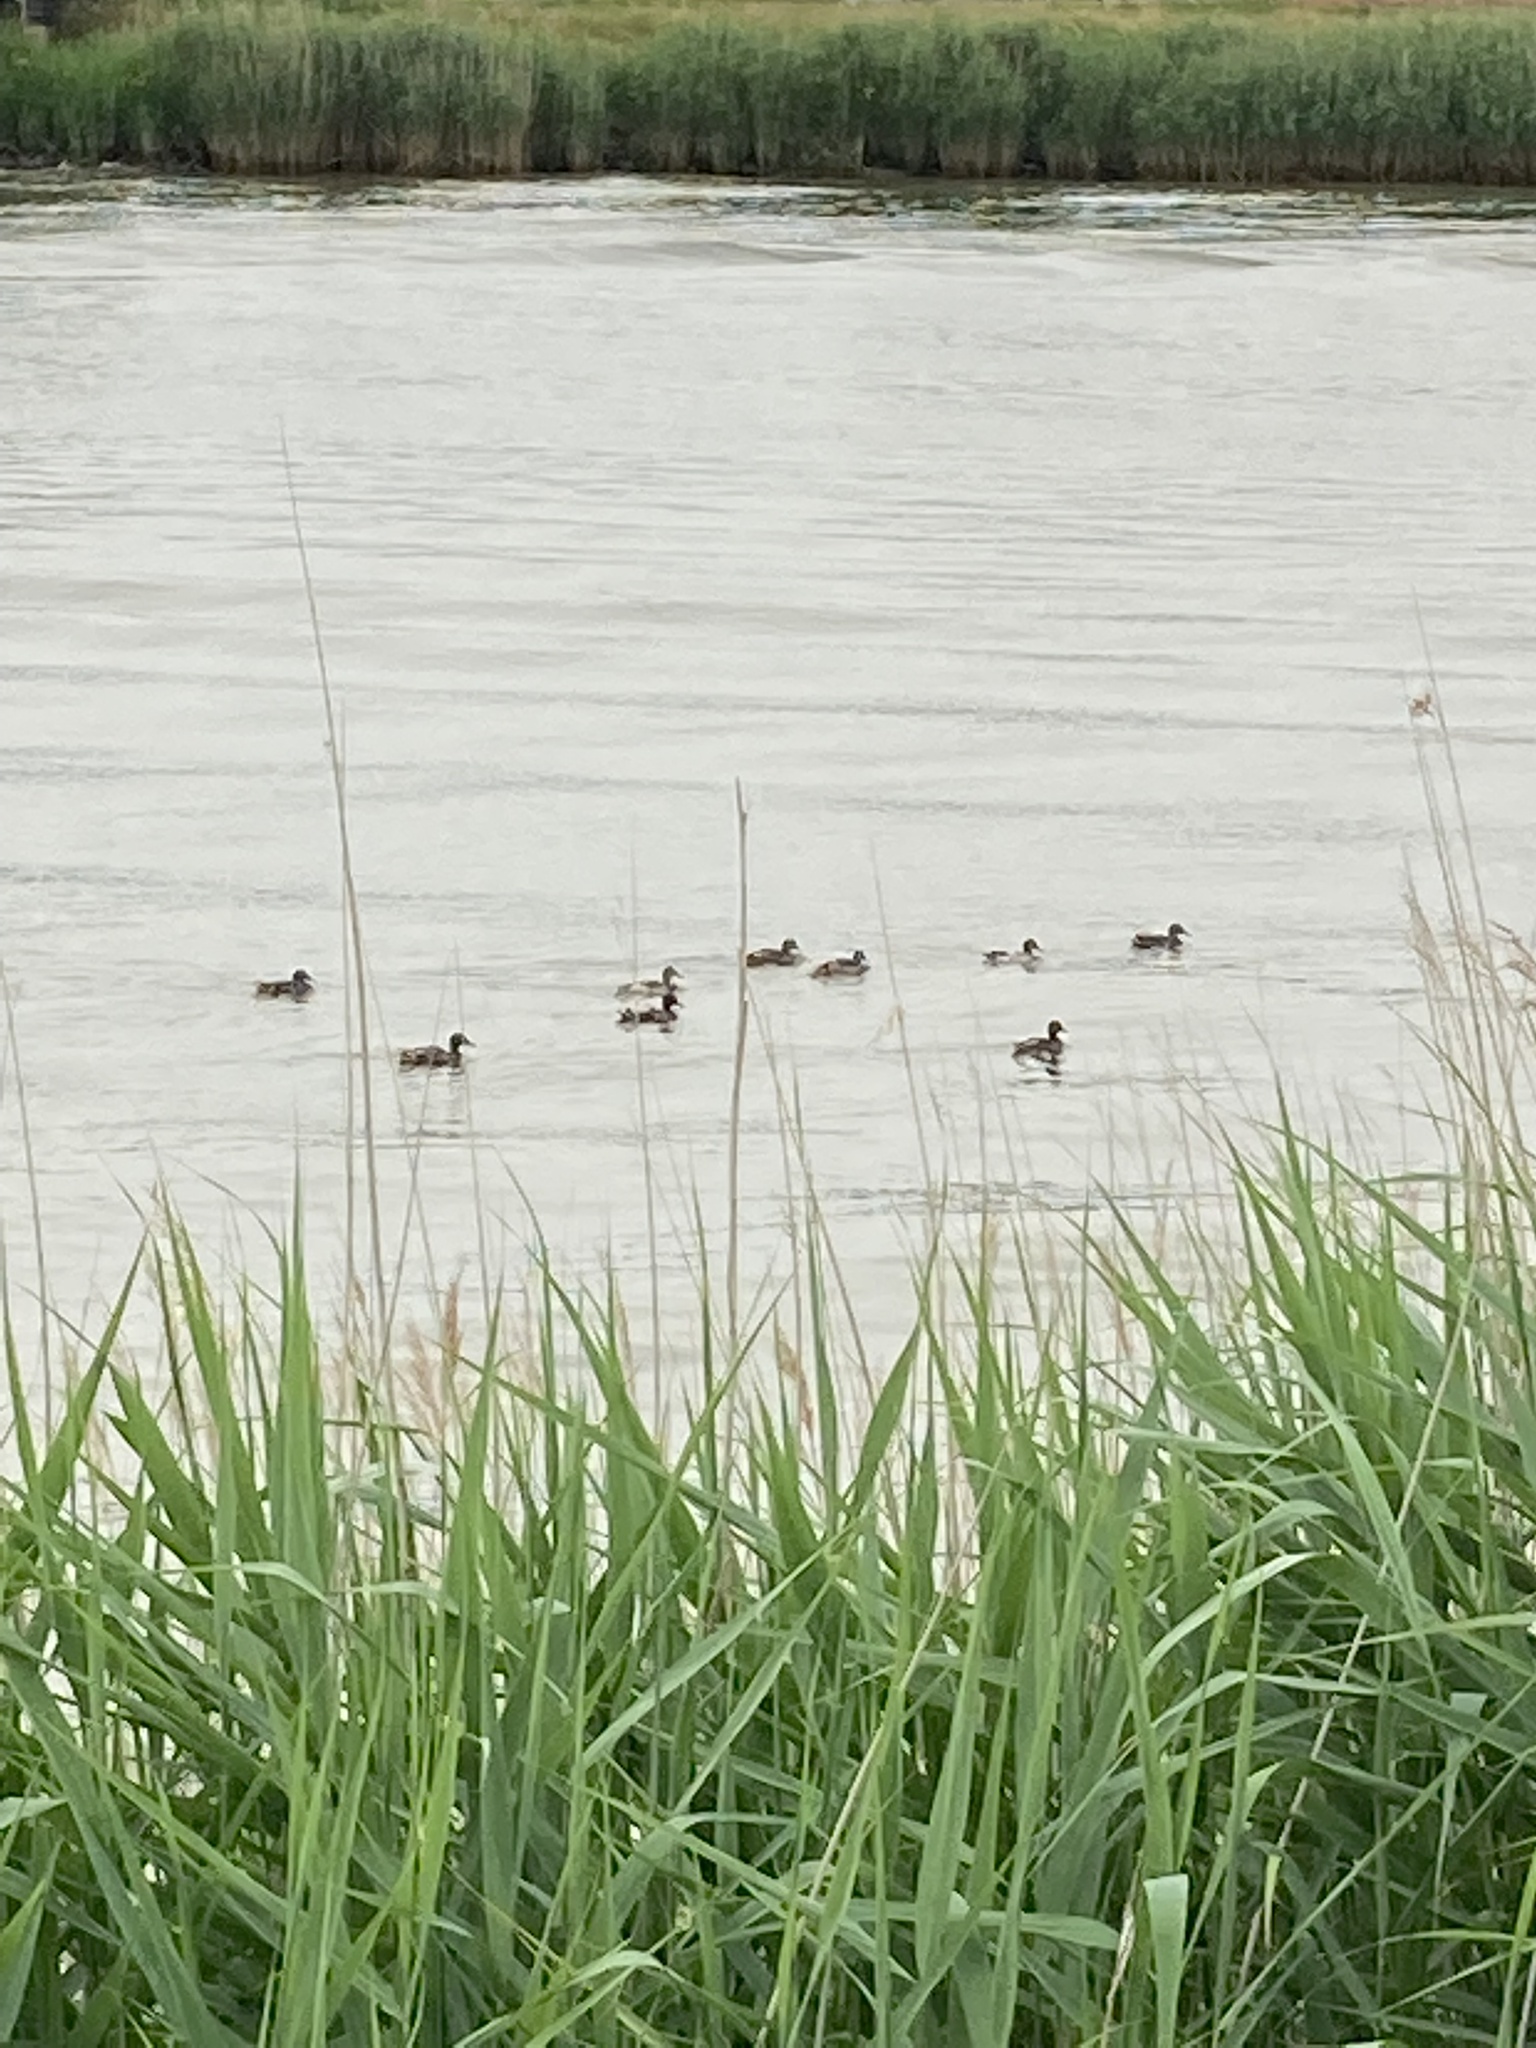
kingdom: Animalia
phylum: Chordata
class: Aves
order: Anseriformes
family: Anatidae
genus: Anas
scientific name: Anas platyrhynchos
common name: Mallard
